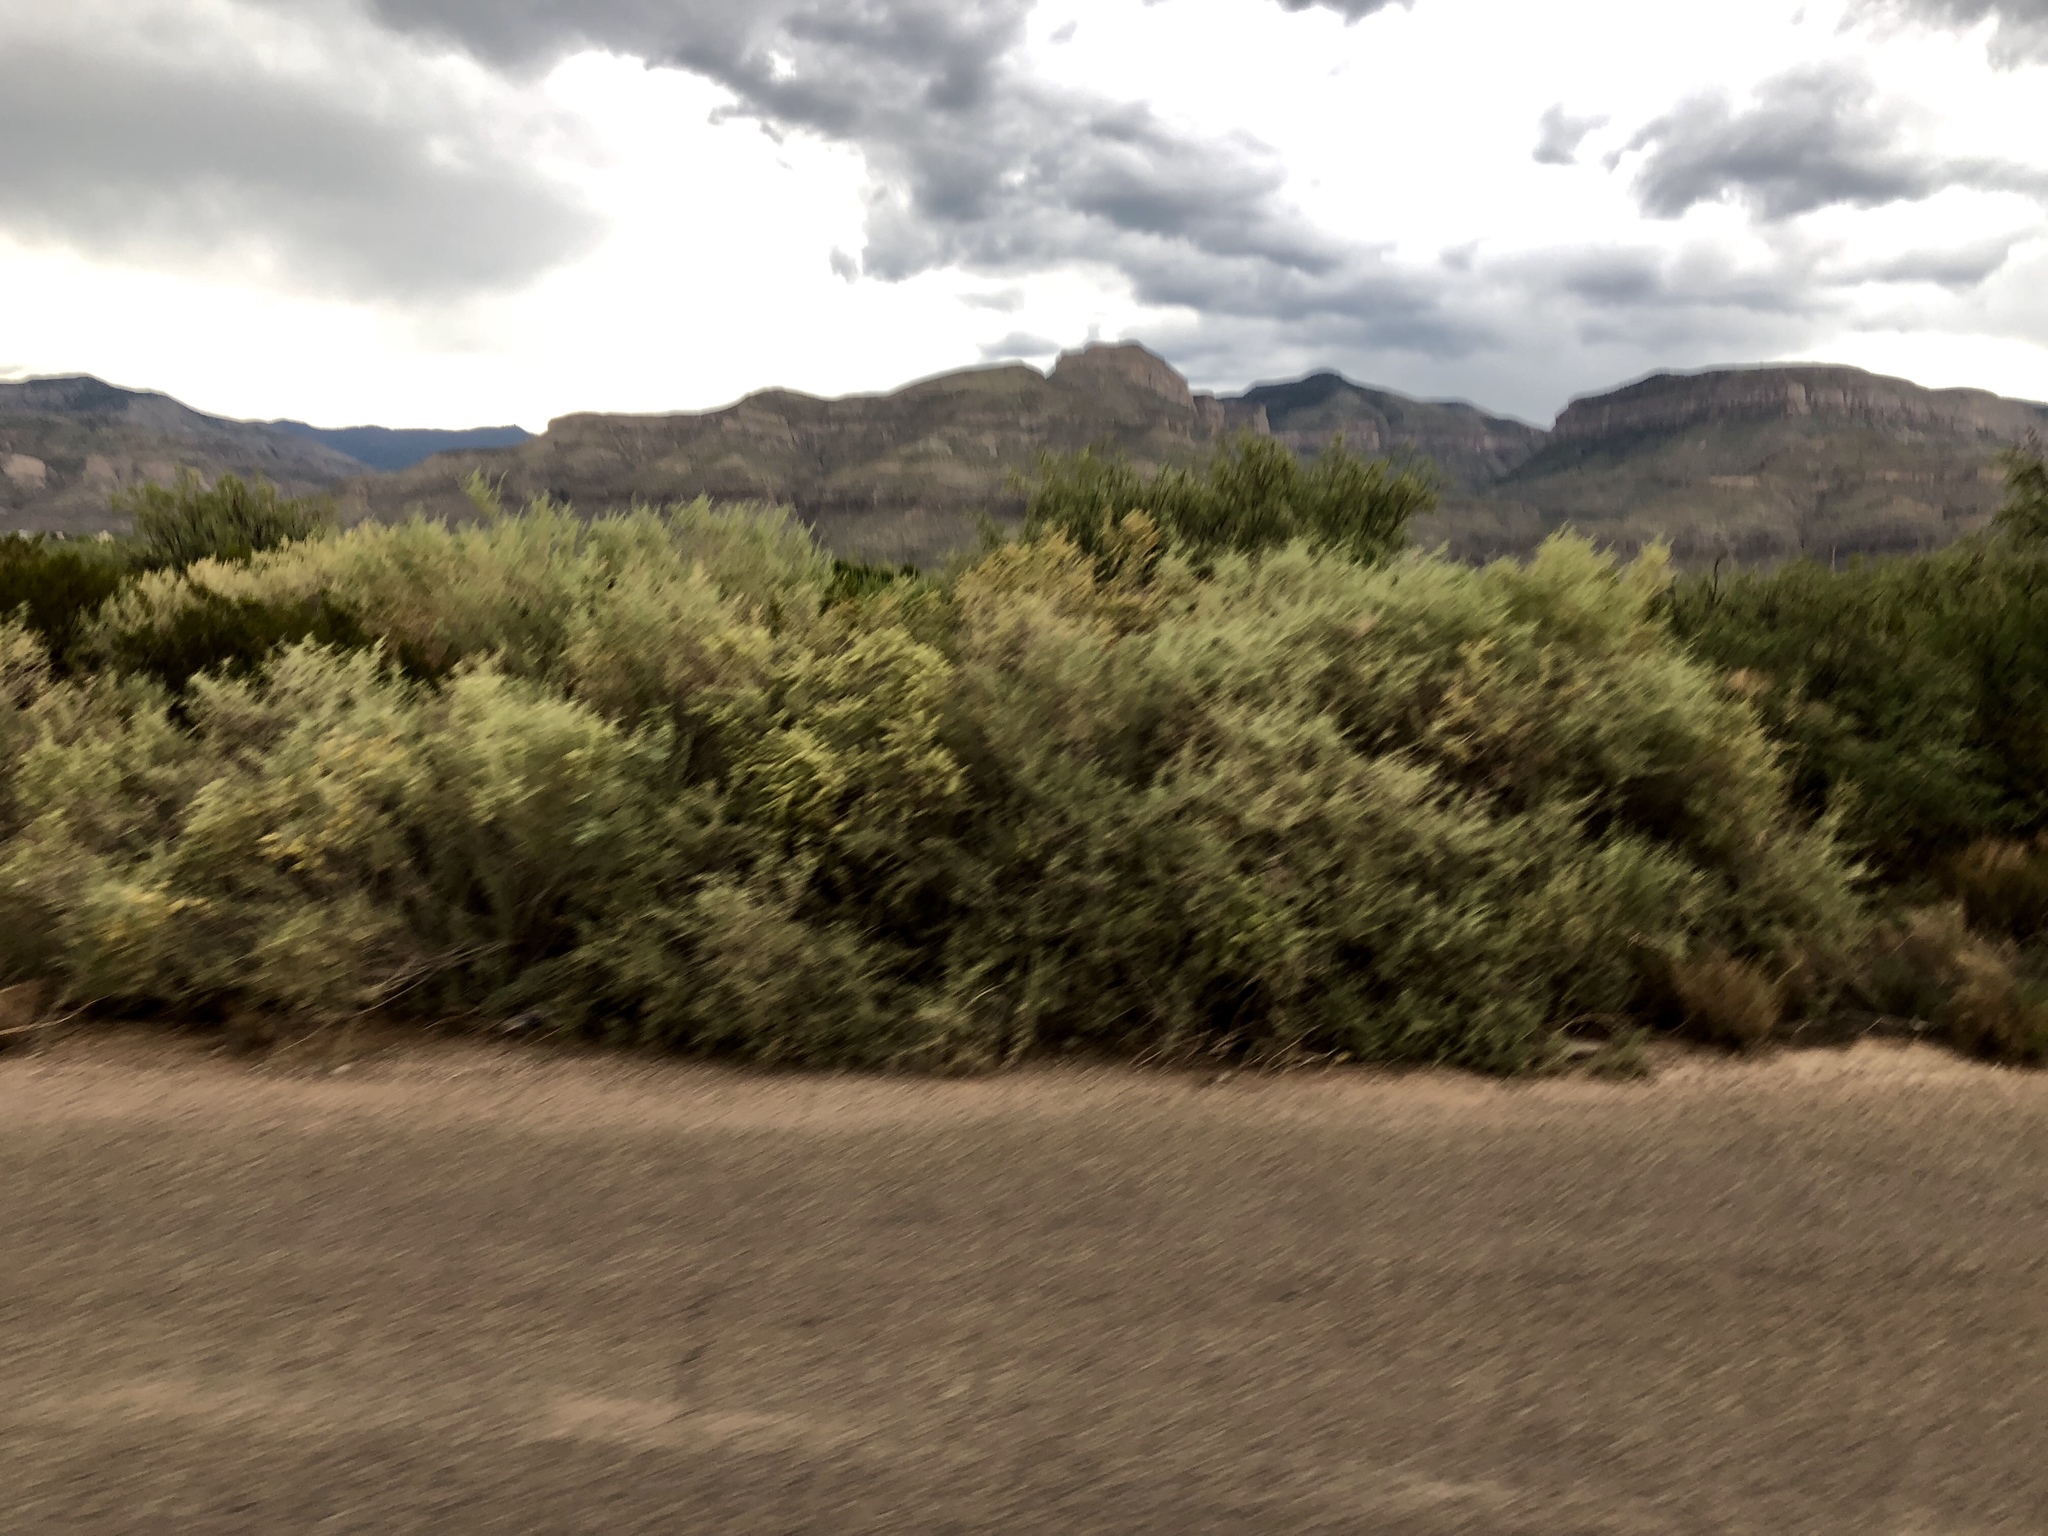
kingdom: Plantae
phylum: Tracheophyta
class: Magnoliopsida
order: Caryophyllales
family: Amaranthaceae
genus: Atriplex
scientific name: Atriplex canescens
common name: Four-wing saltbush
